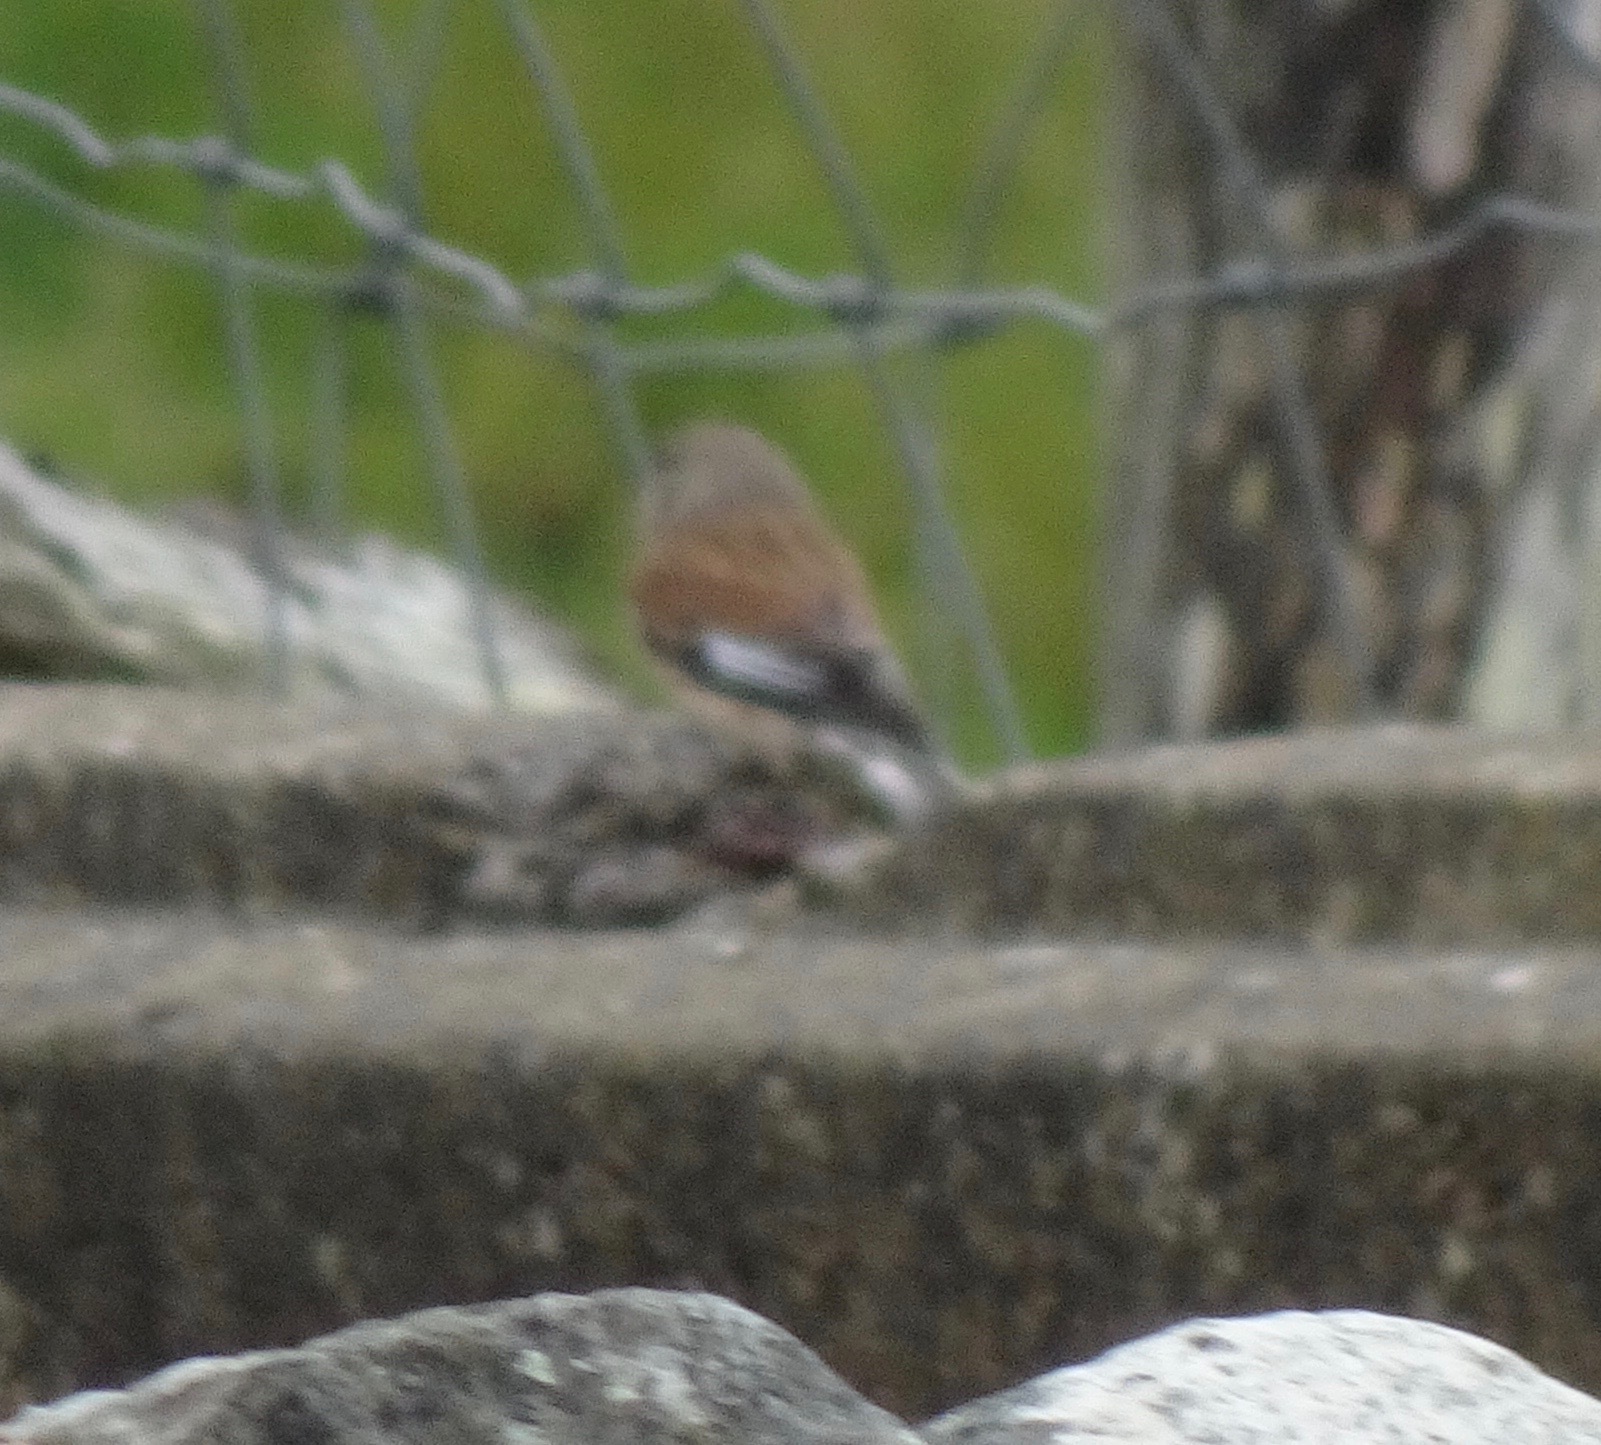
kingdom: Animalia
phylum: Chordata
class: Aves
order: Passeriformes
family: Fringillidae
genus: Linaria
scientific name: Linaria cannabina
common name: Common linnet
